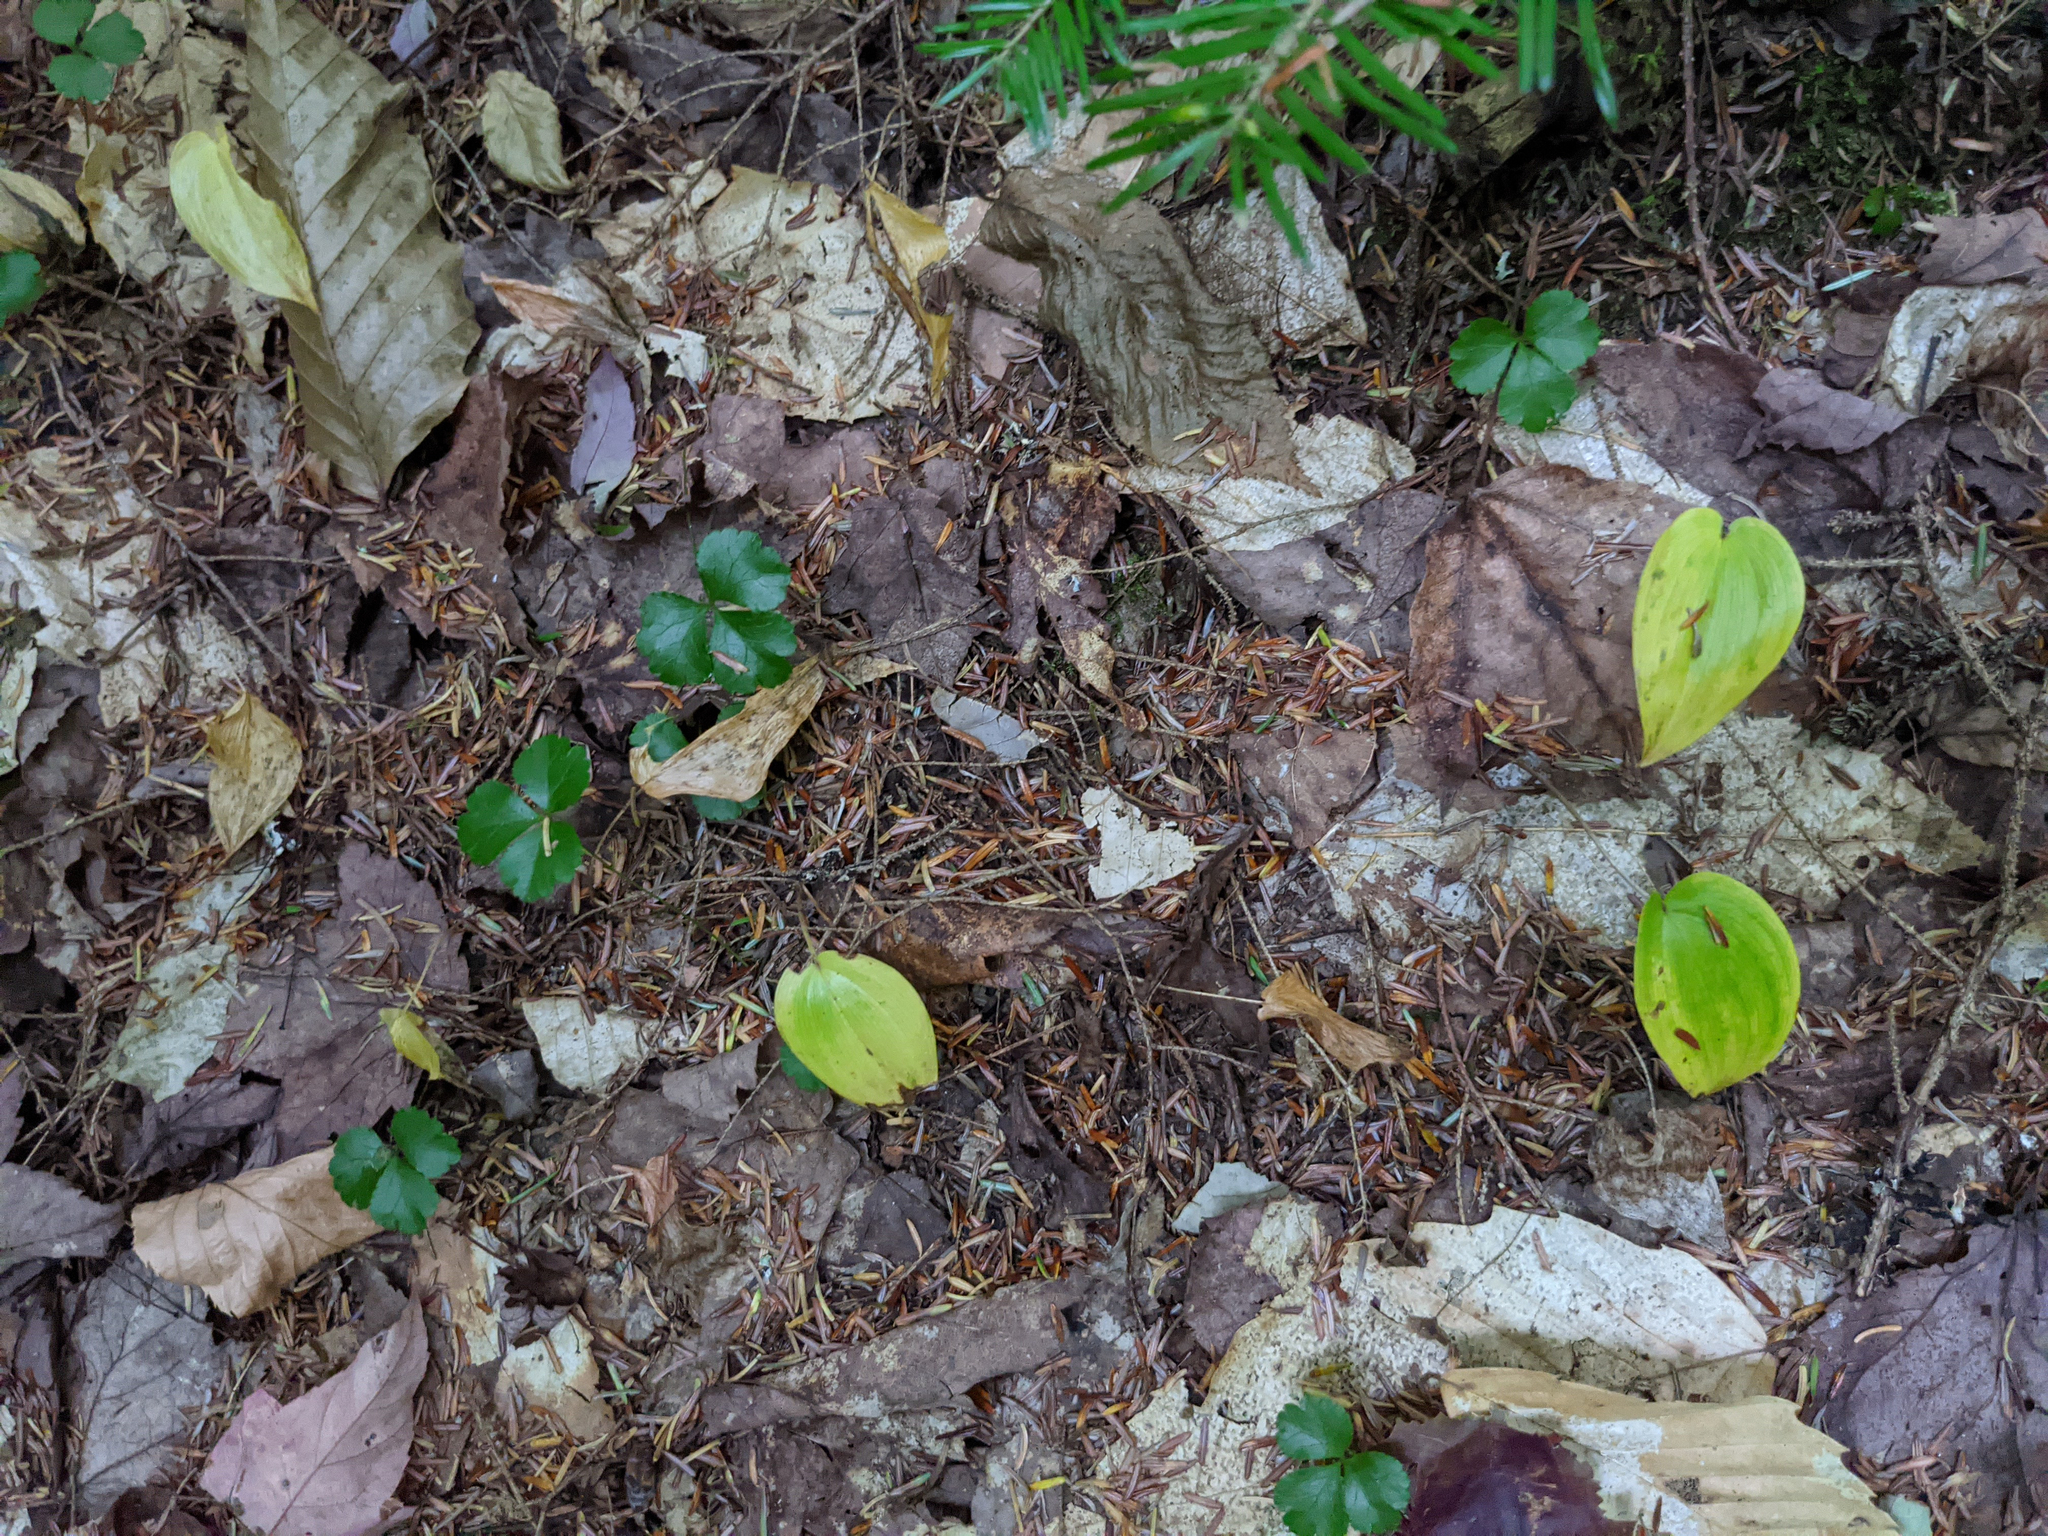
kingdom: Plantae
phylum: Tracheophyta
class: Liliopsida
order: Asparagales
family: Asparagaceae
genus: Maianthemum
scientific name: Maianthemum canadense
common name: False lily-of-the-valley
